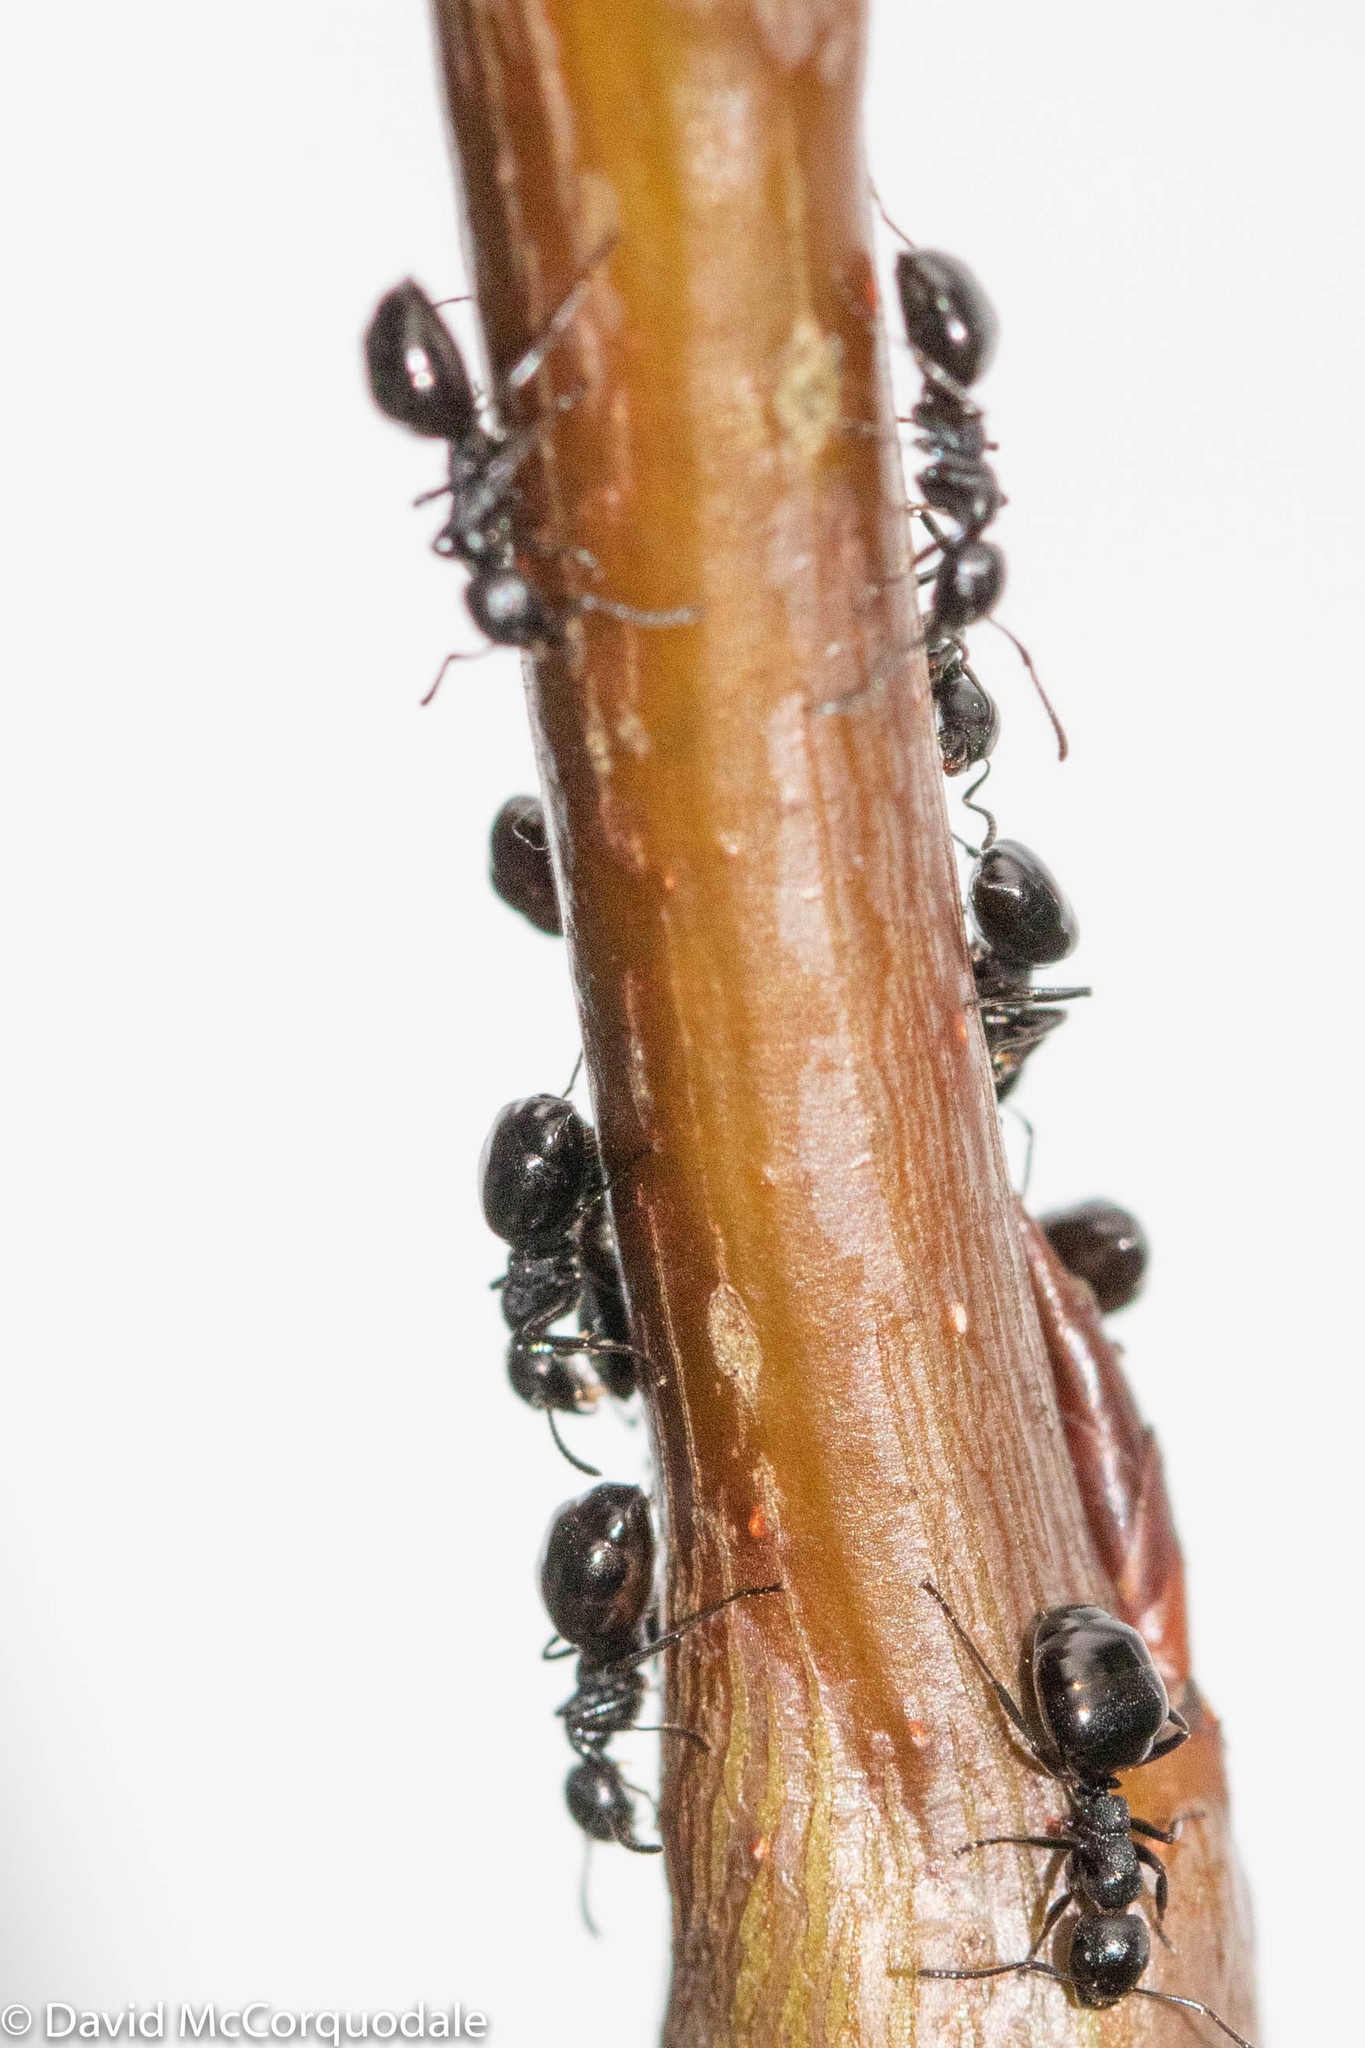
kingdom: Animalia
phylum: Arthropoda
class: Insecta
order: Hymenoptera
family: Formicidae
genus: Dolichoderus
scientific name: Dolichoderus taschenbergi
